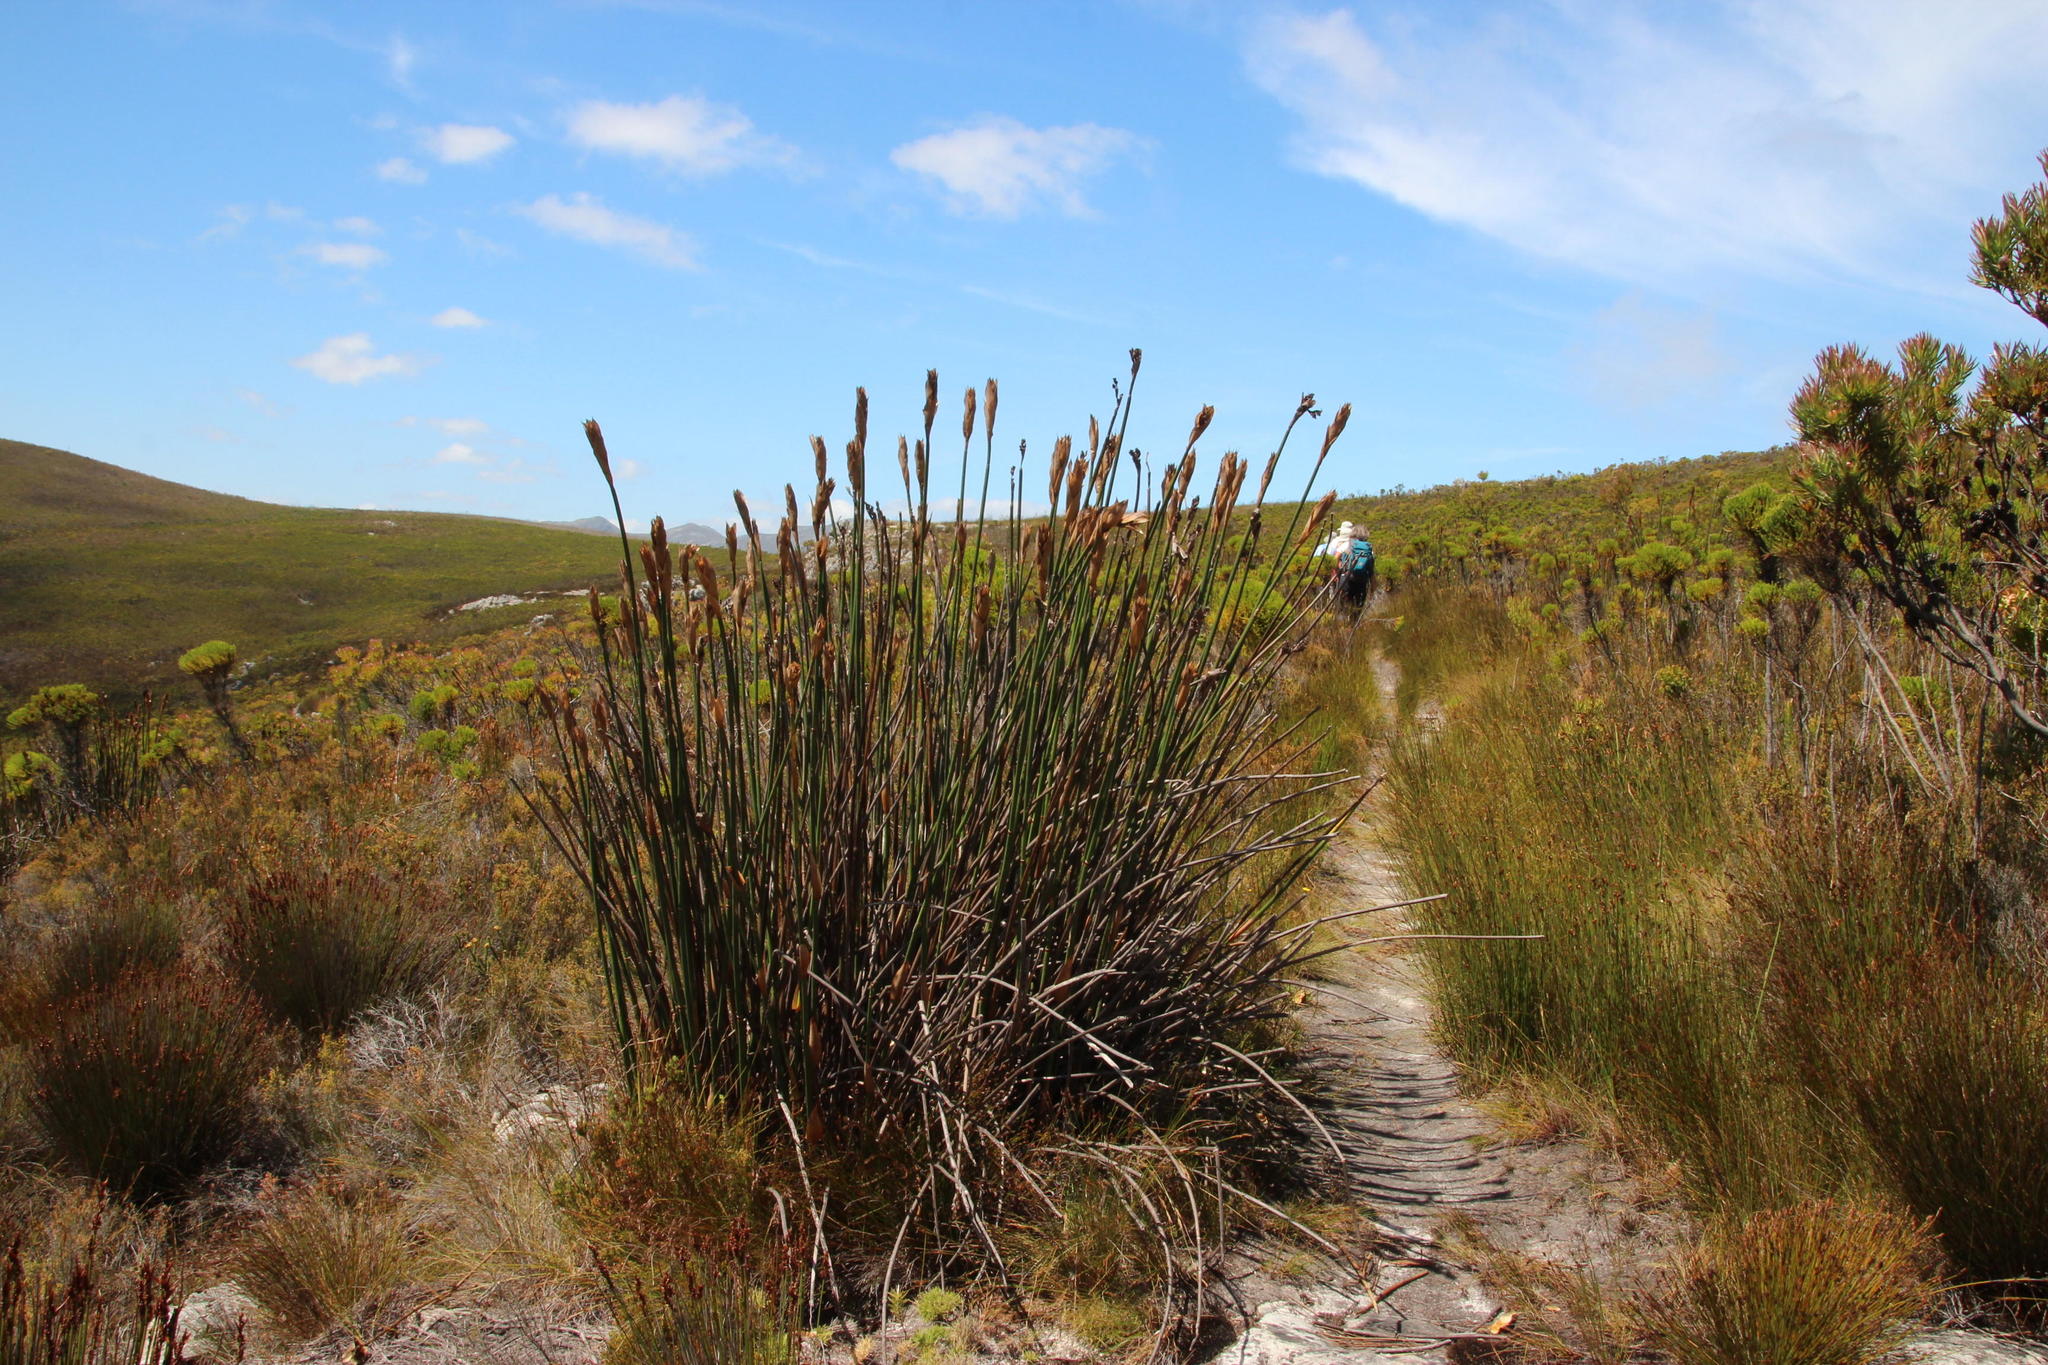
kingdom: Plantae
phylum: Tracheophyta
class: Liliopsida
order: Poales
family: Restionaceae
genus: Elegia
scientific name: Elegia mucronata
